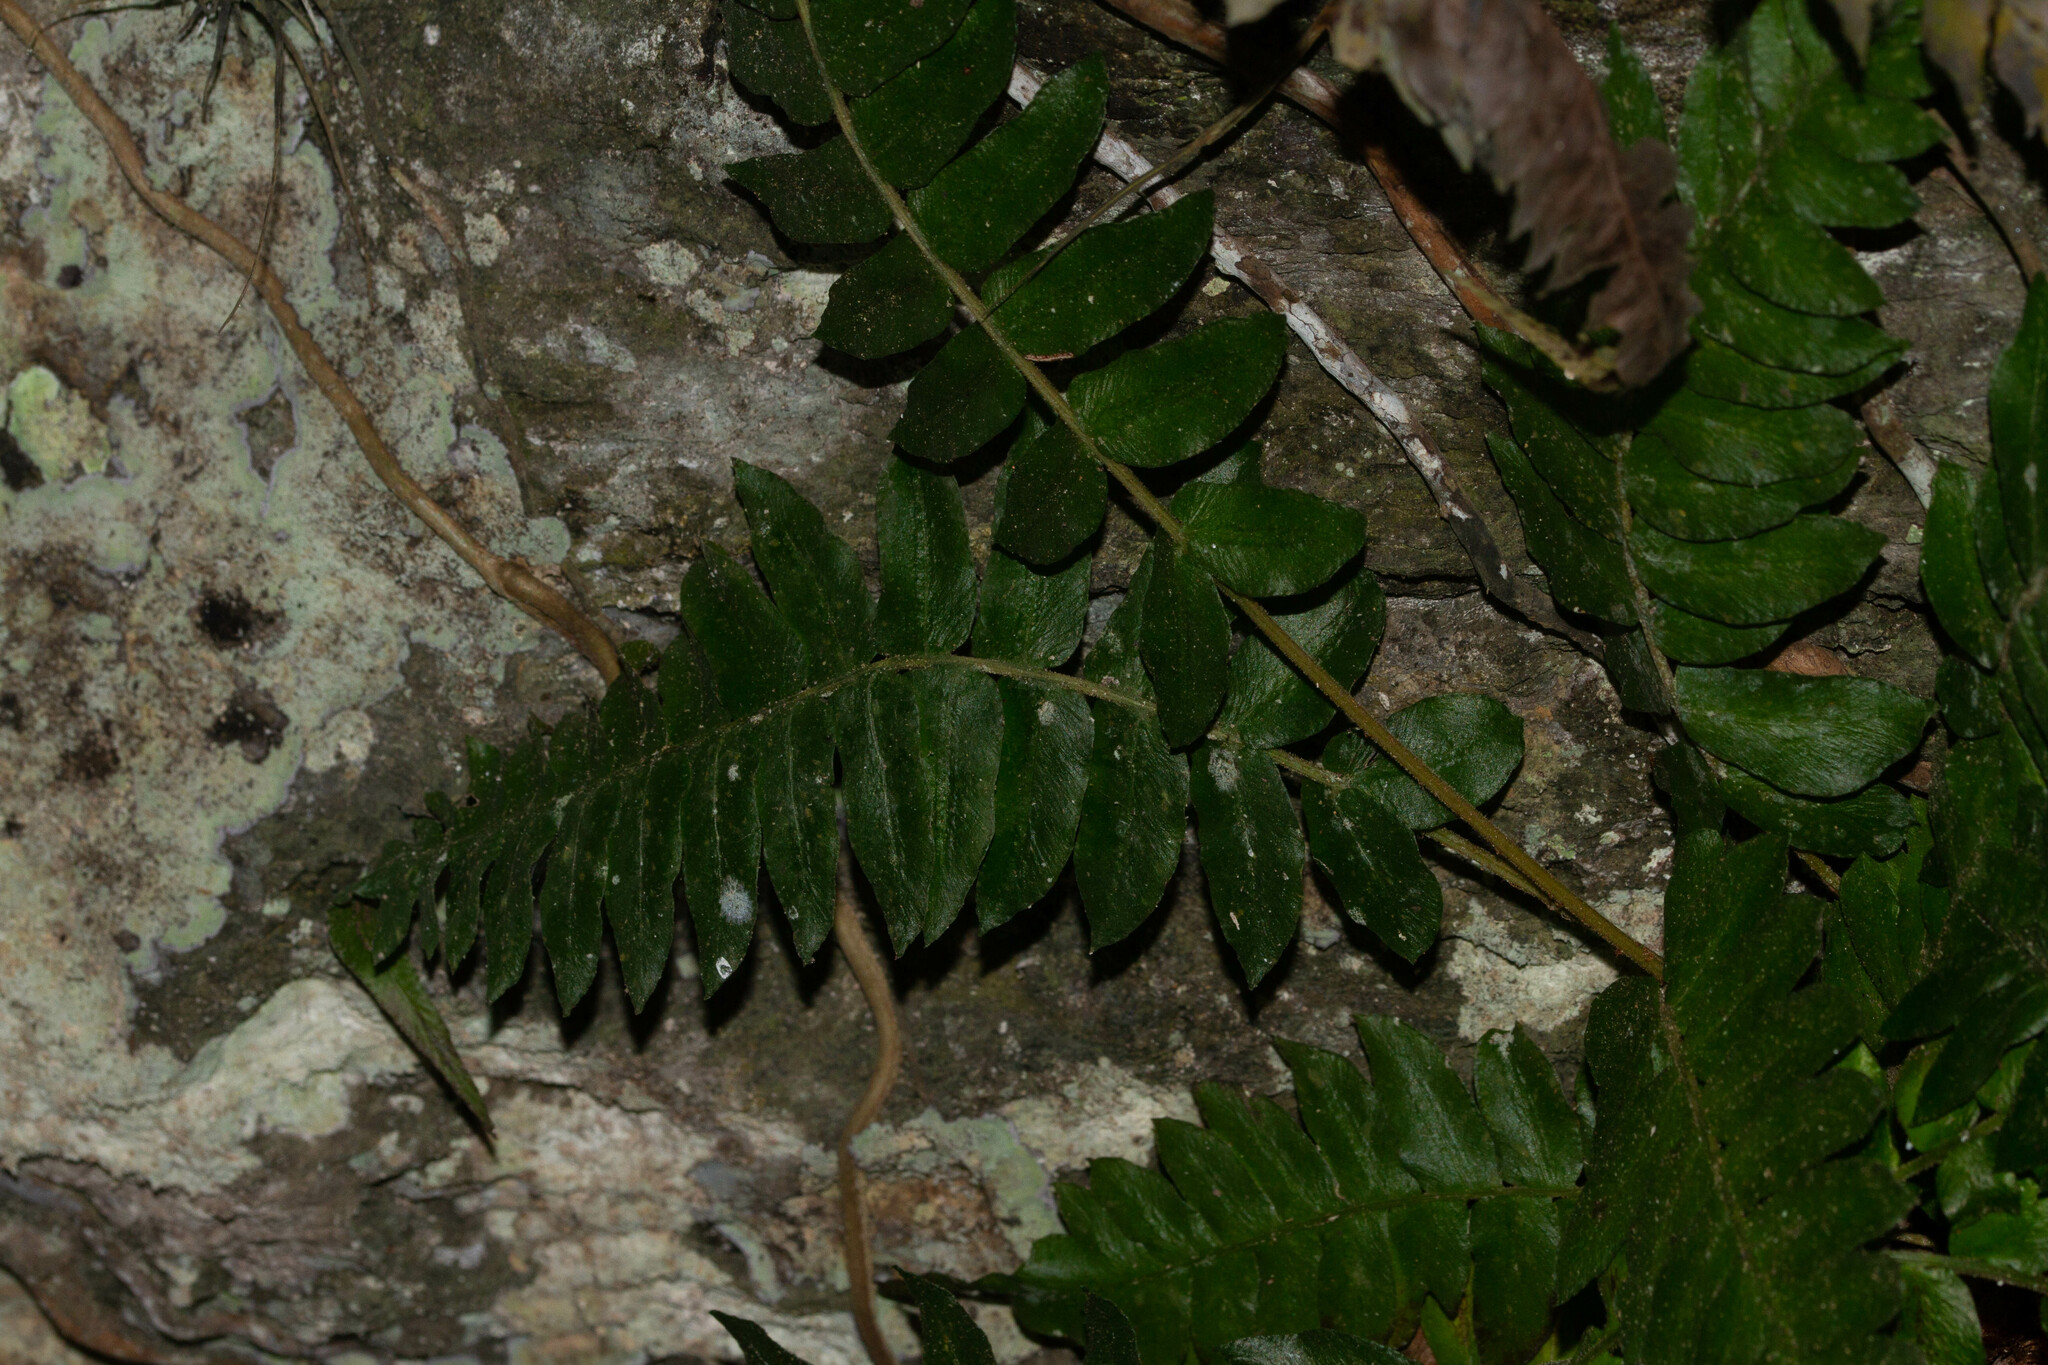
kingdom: Plantae
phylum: Tracheophyta
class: Polypodiopsida
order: Polypodiales
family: Blechnaceae
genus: Blechnum
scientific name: Blechnum occidentale
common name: Hammock fern
